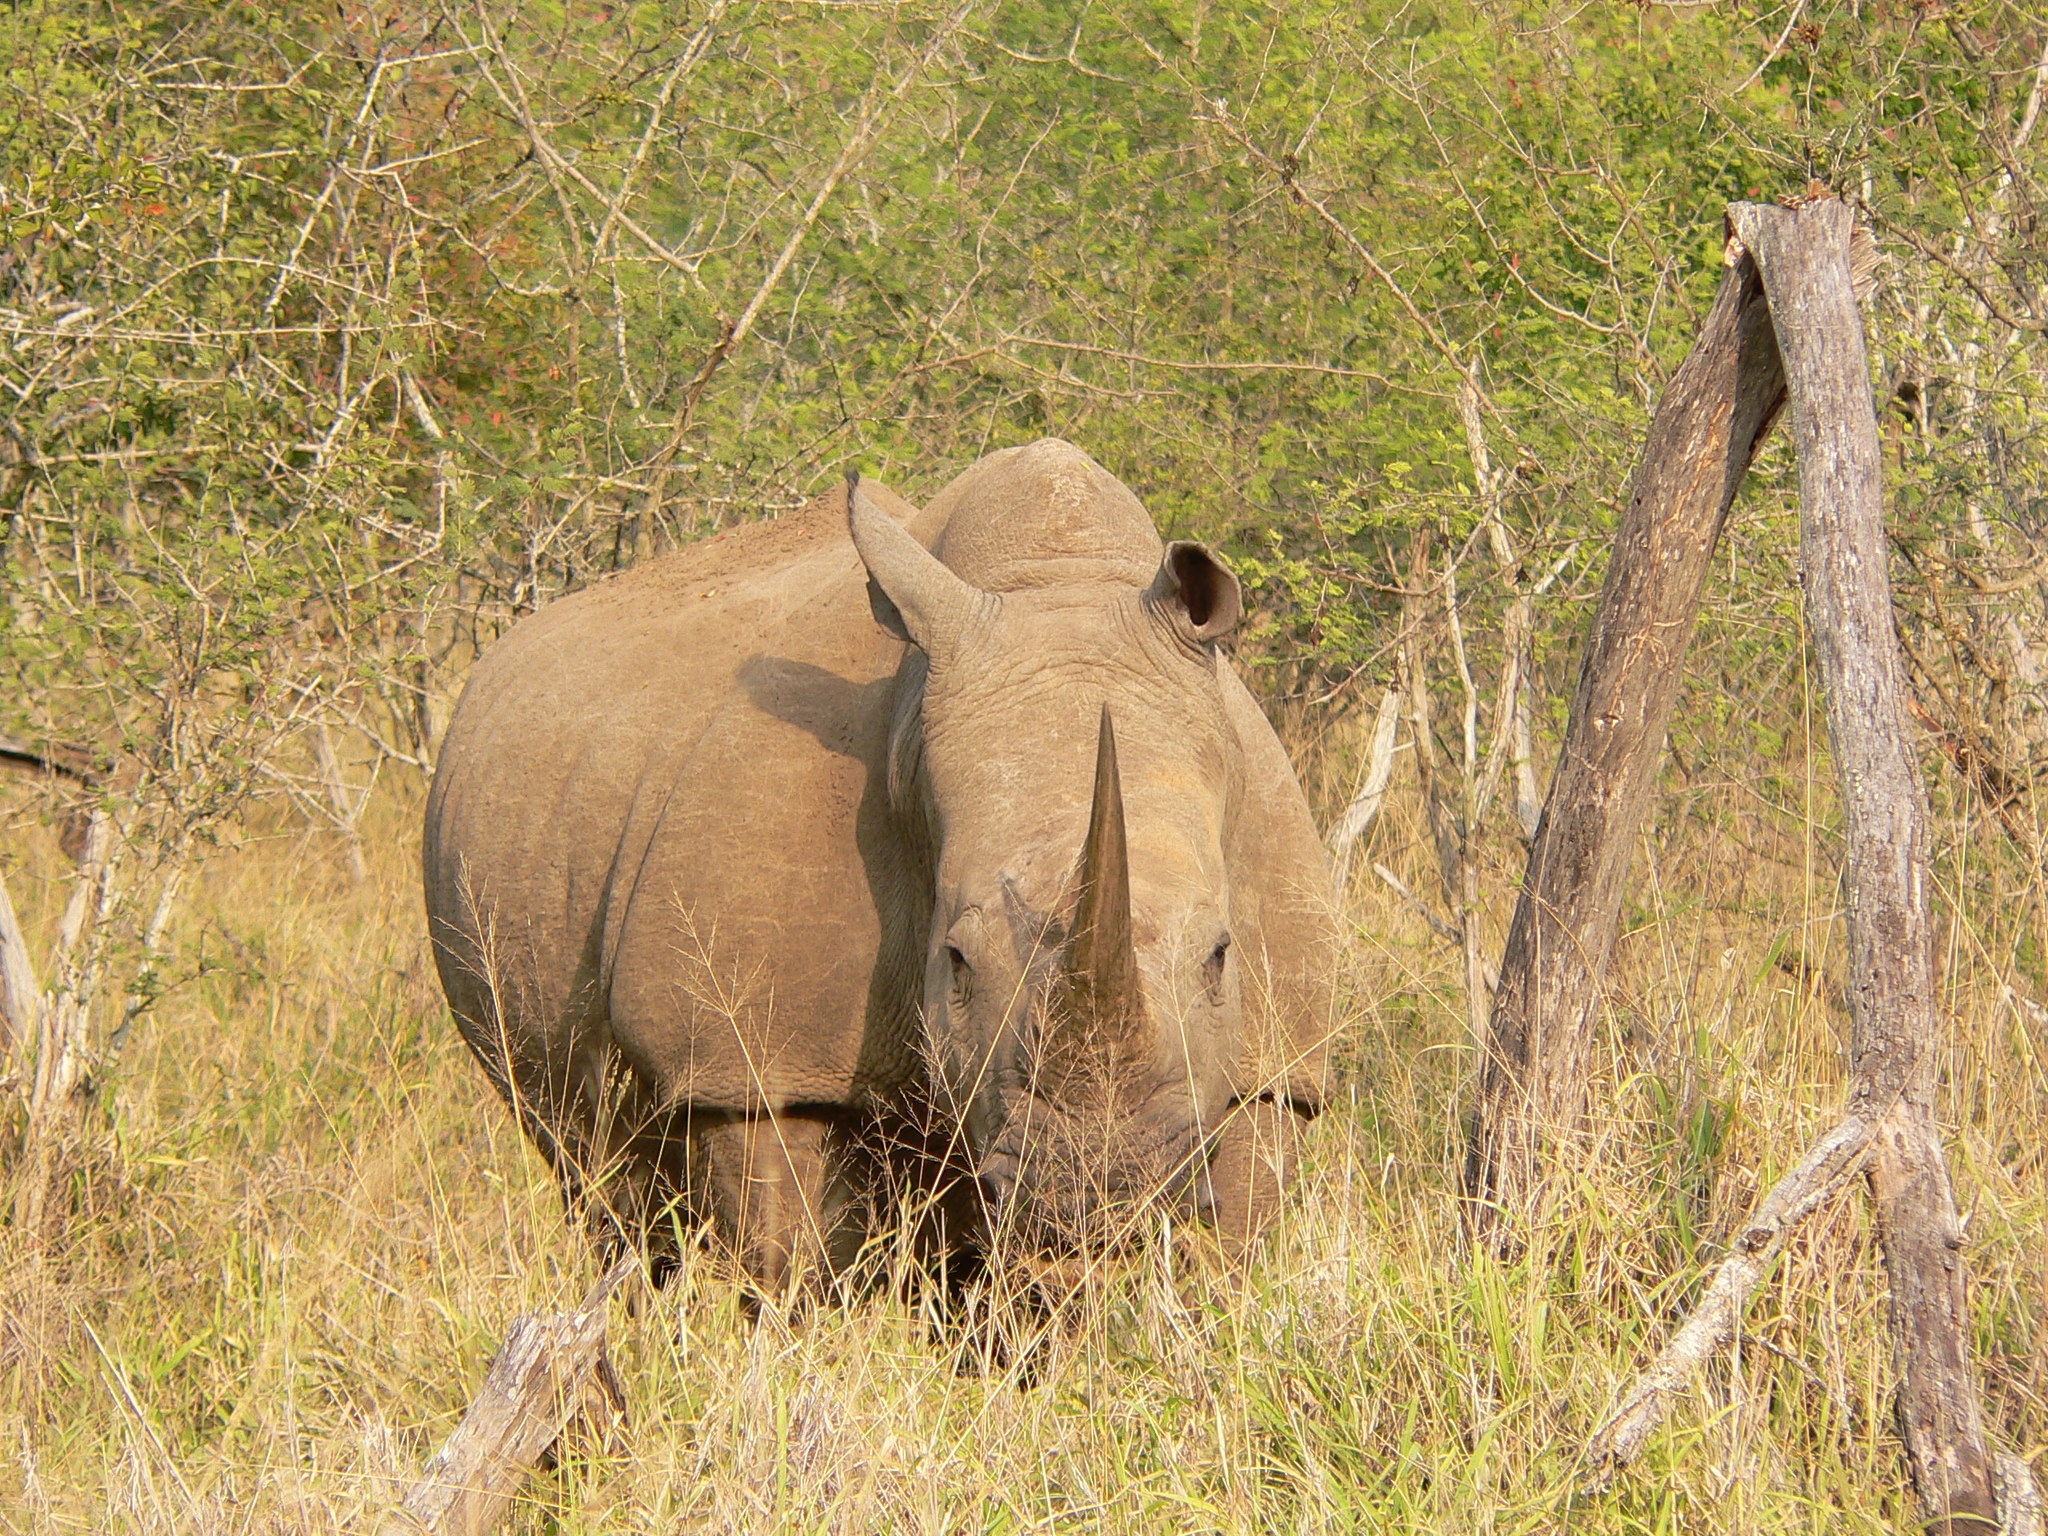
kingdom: Animalia
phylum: Chordata
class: Mammalia
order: Perissodactyla
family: Rhinocerotidae
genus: Ceratotherium
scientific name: Ceratotherium simum
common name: White rhinoceros
